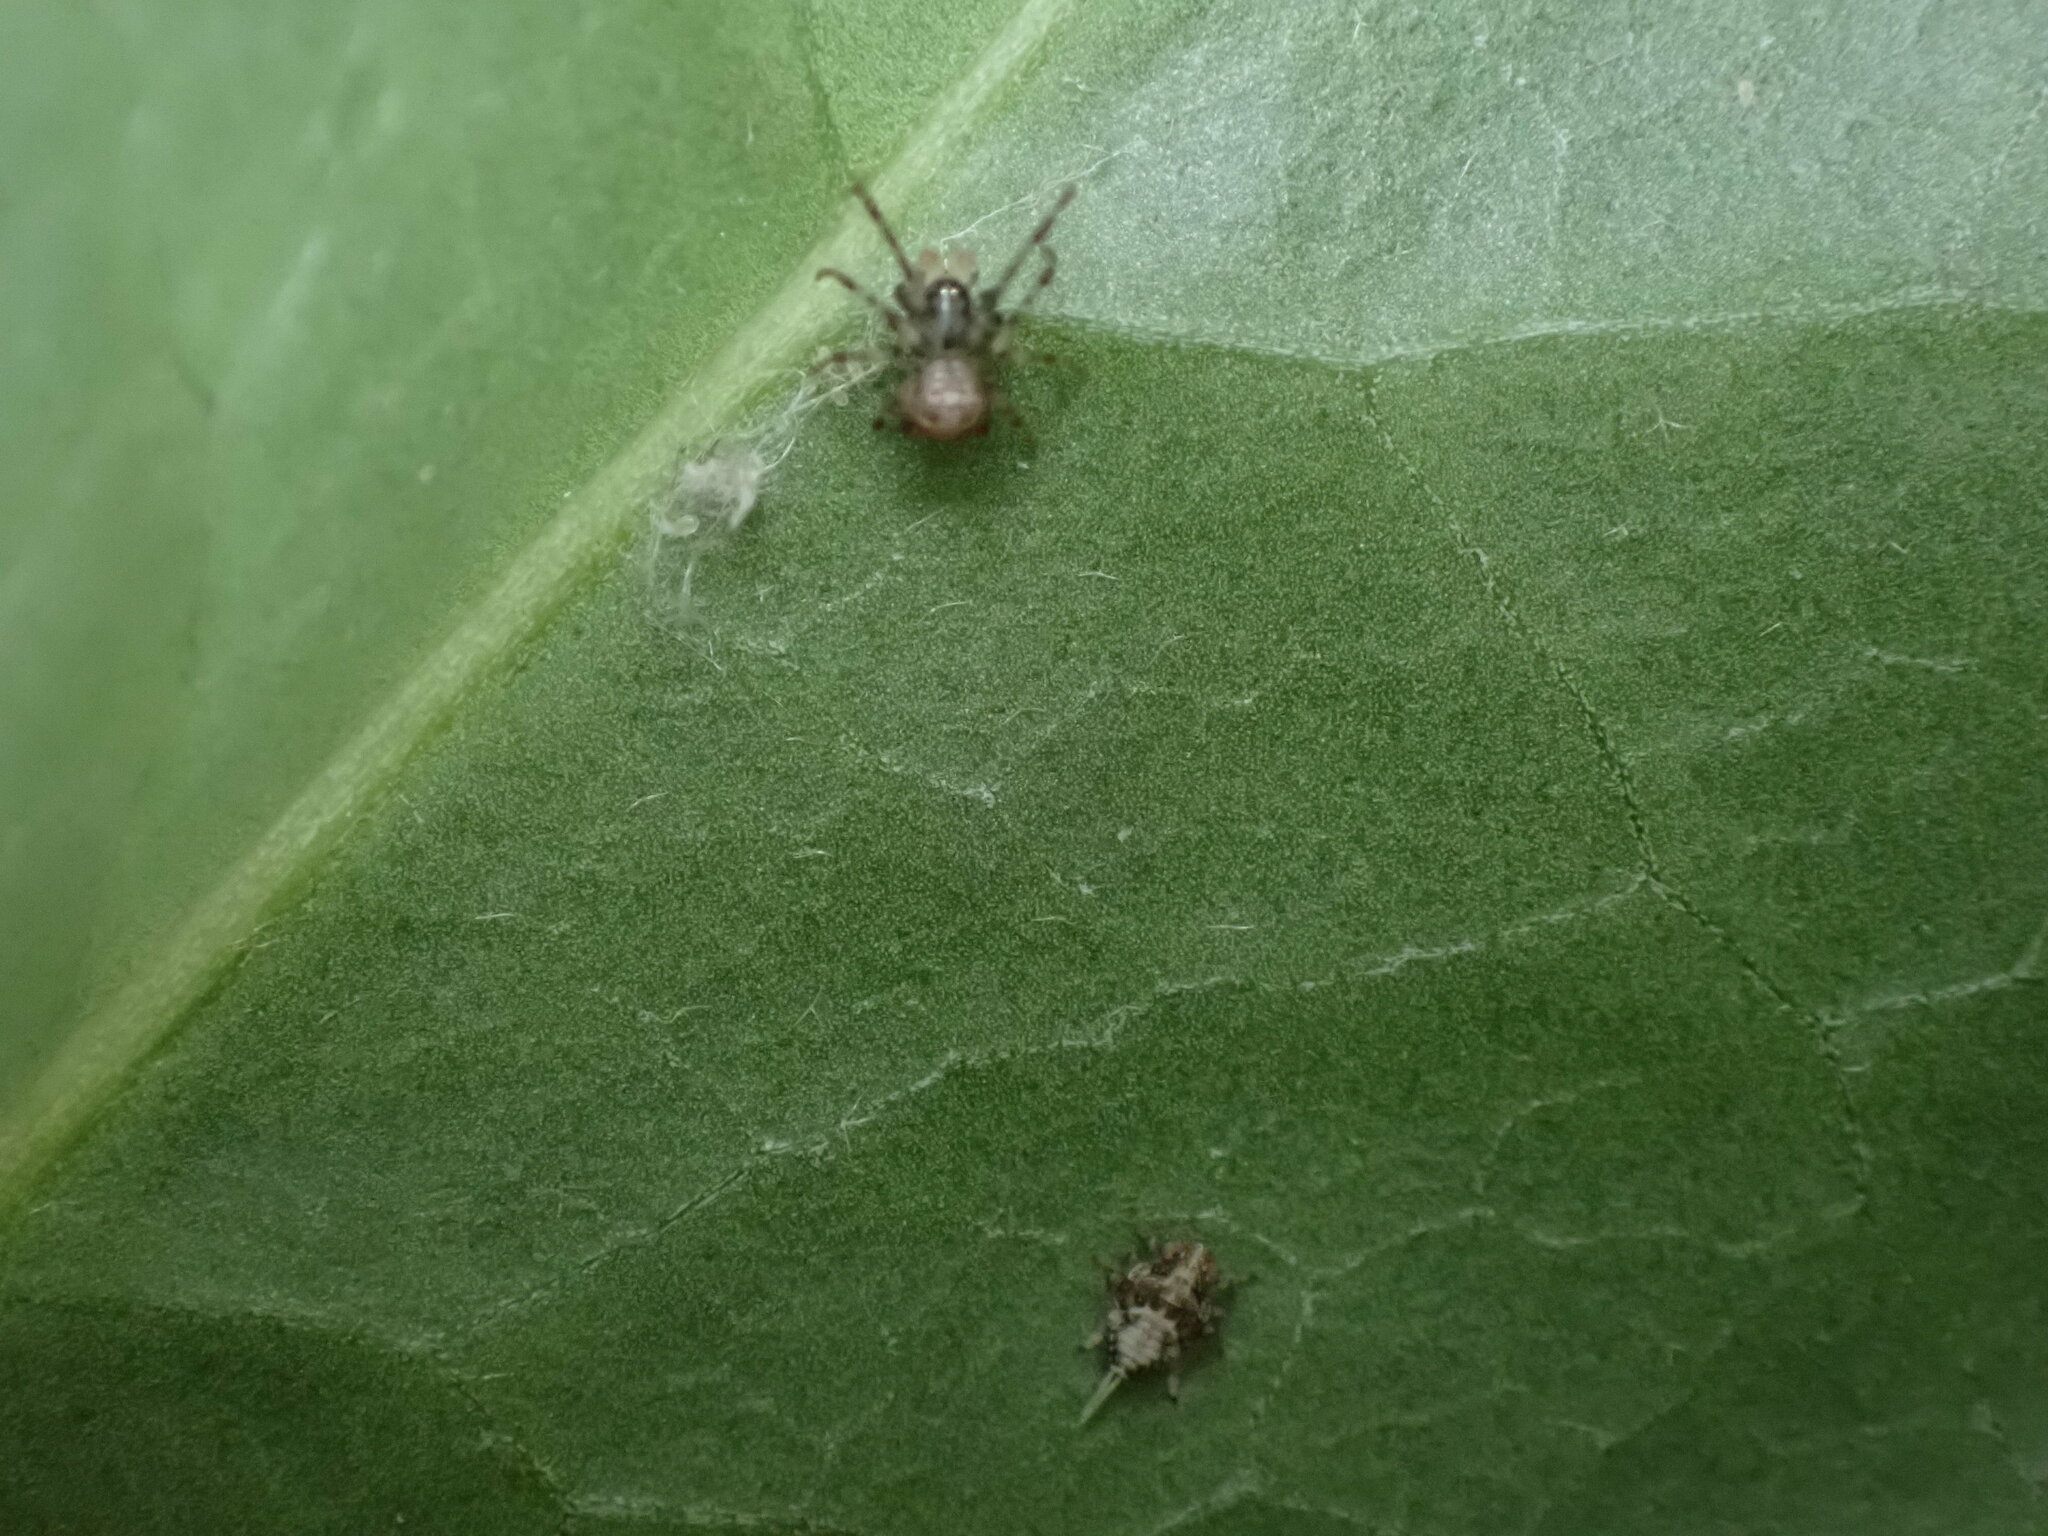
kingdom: Animalia
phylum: Arthropoda
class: Insecta
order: Hemiptera
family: Issidae
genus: Issus
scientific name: Issus
